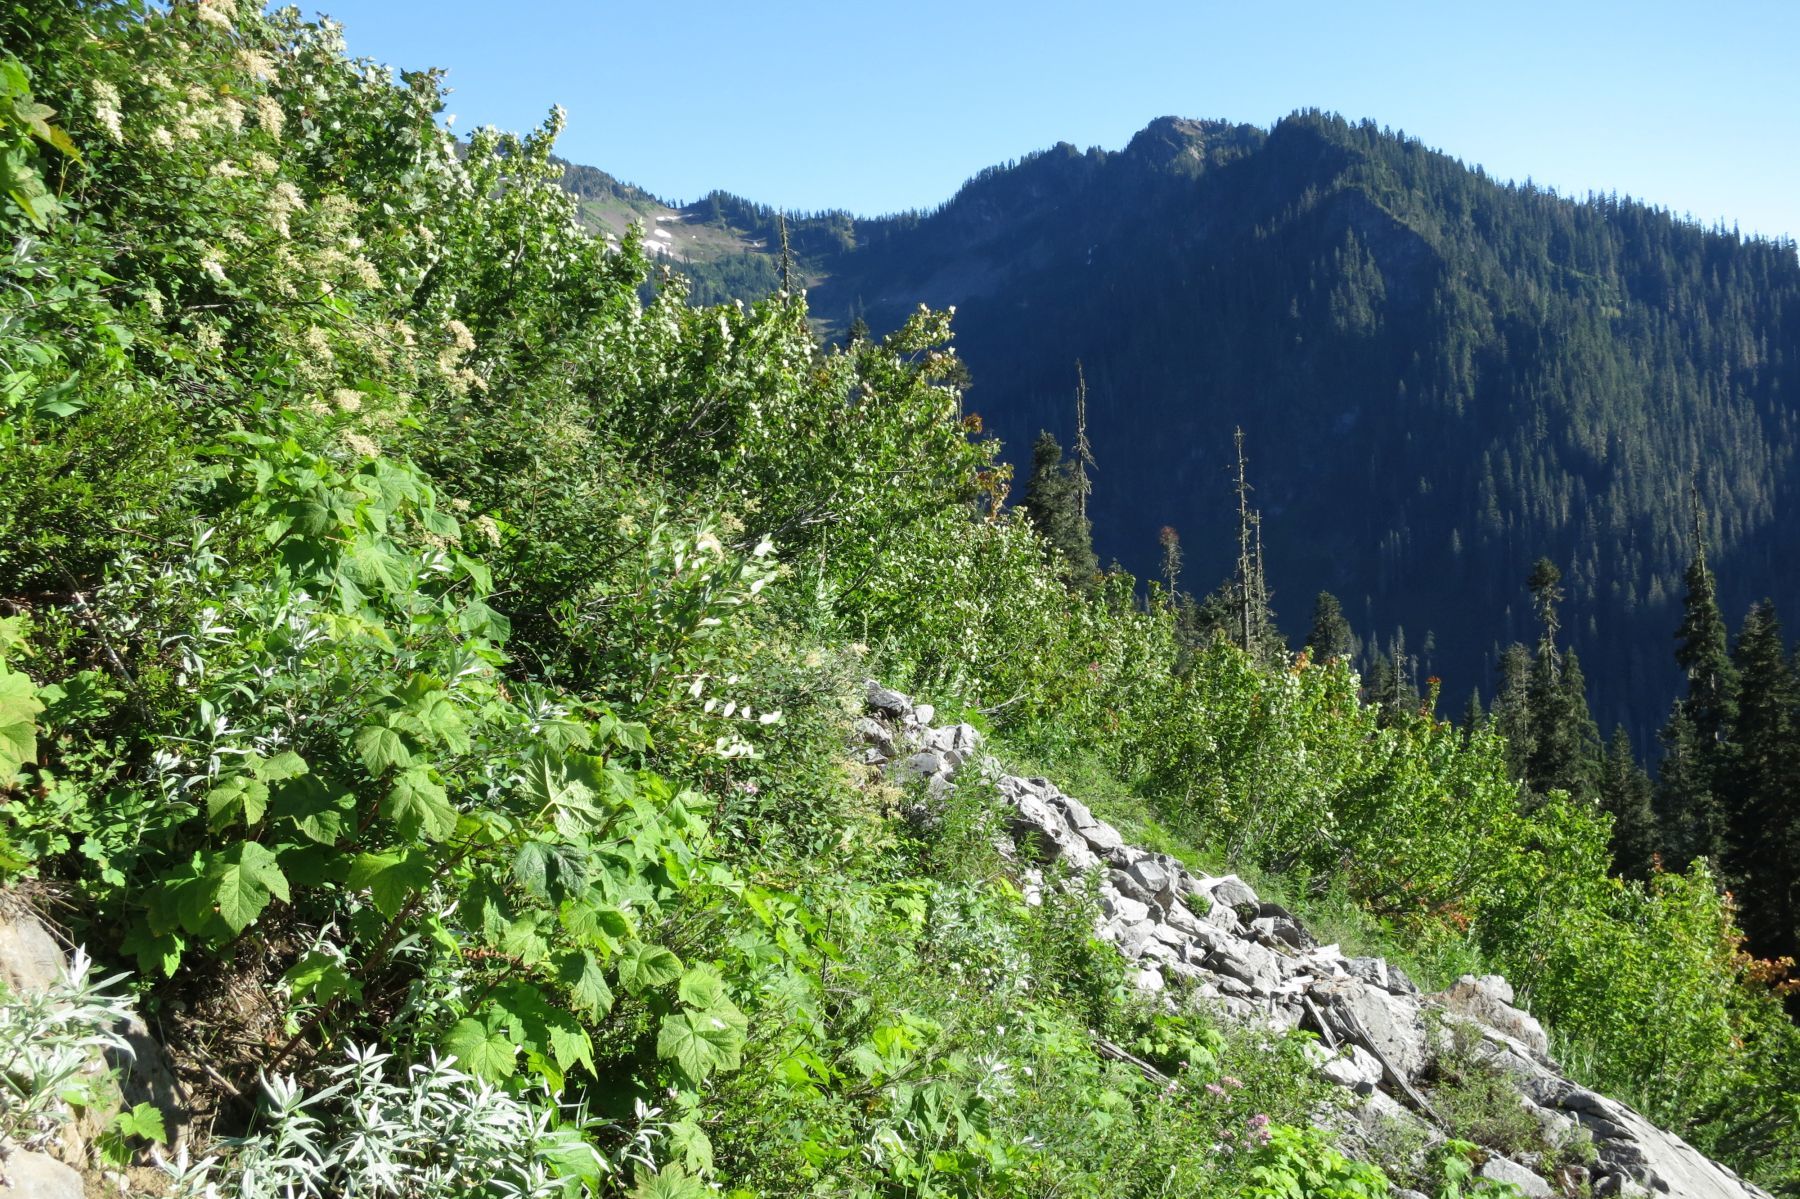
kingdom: Plantae
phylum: Tracheophyta
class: Magnoliopsida
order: Rosales
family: Rosaceae
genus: Holodiscus
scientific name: Holodiscus discolor
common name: Oceanspray
